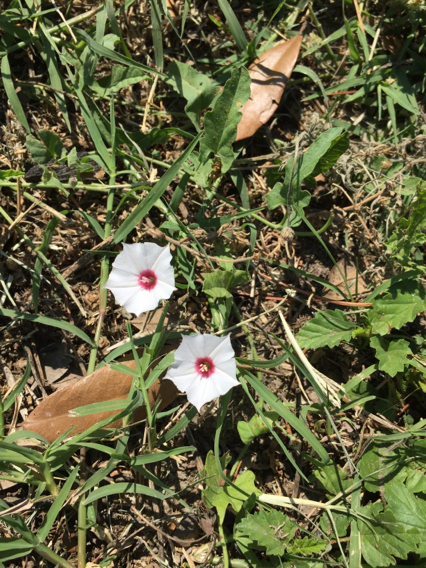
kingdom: Plantae
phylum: Tracheophyta
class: Magnoliopsida
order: Solanales
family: Convolvulaceae
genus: Convolvulus
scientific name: Convolvulus equitans
